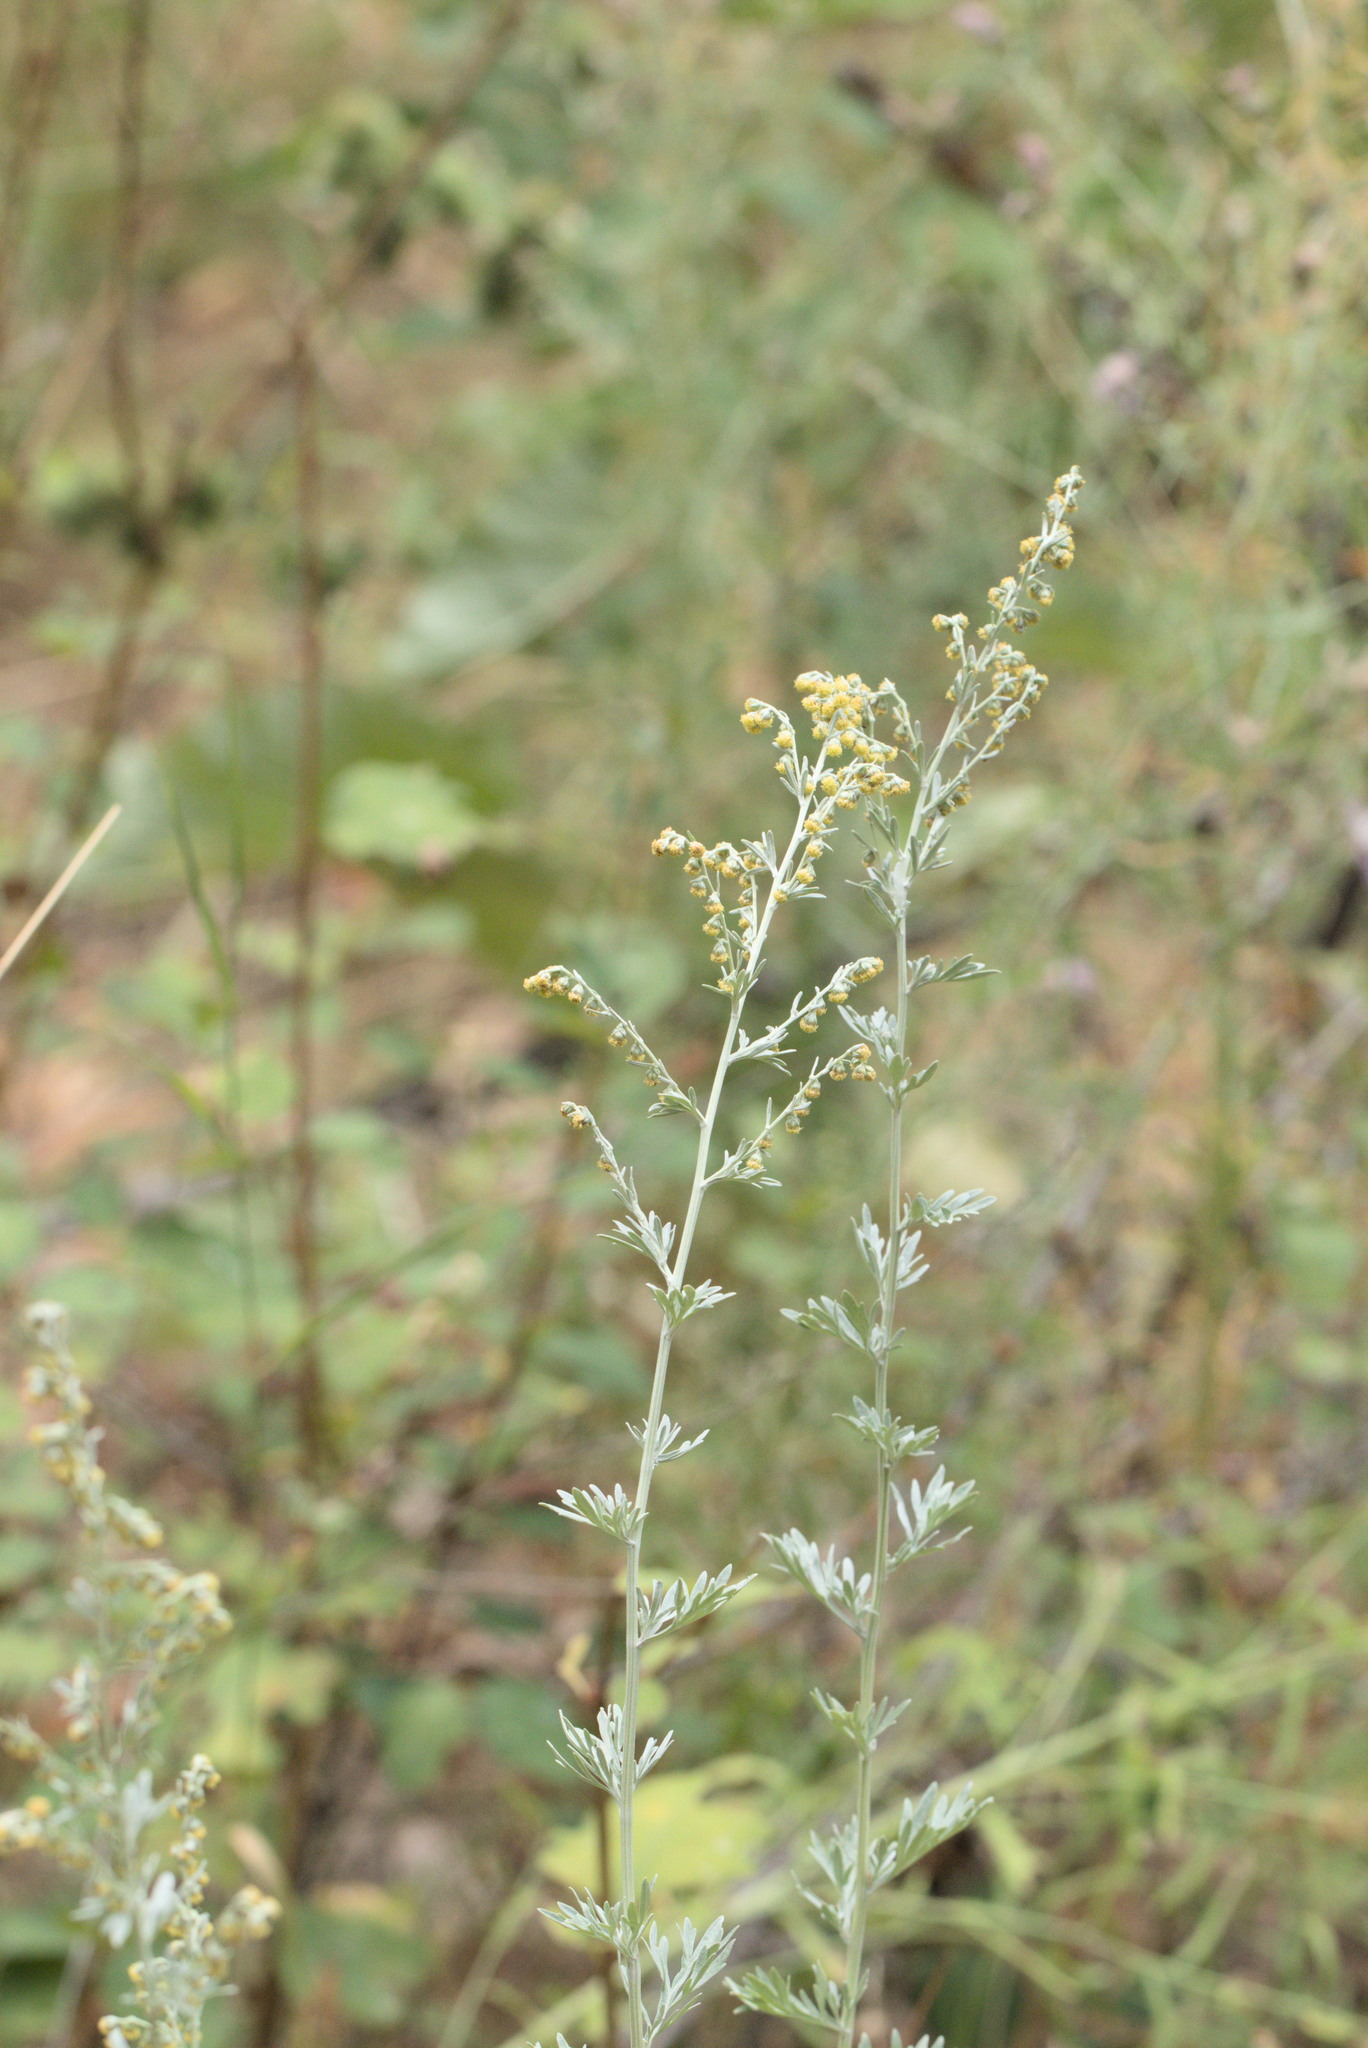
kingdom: Plantae
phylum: Tracheophyta
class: Magnoliopsida
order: Asterales
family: Asteraceae
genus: Artemisia
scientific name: Artemisia absinthium
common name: Wormwood
